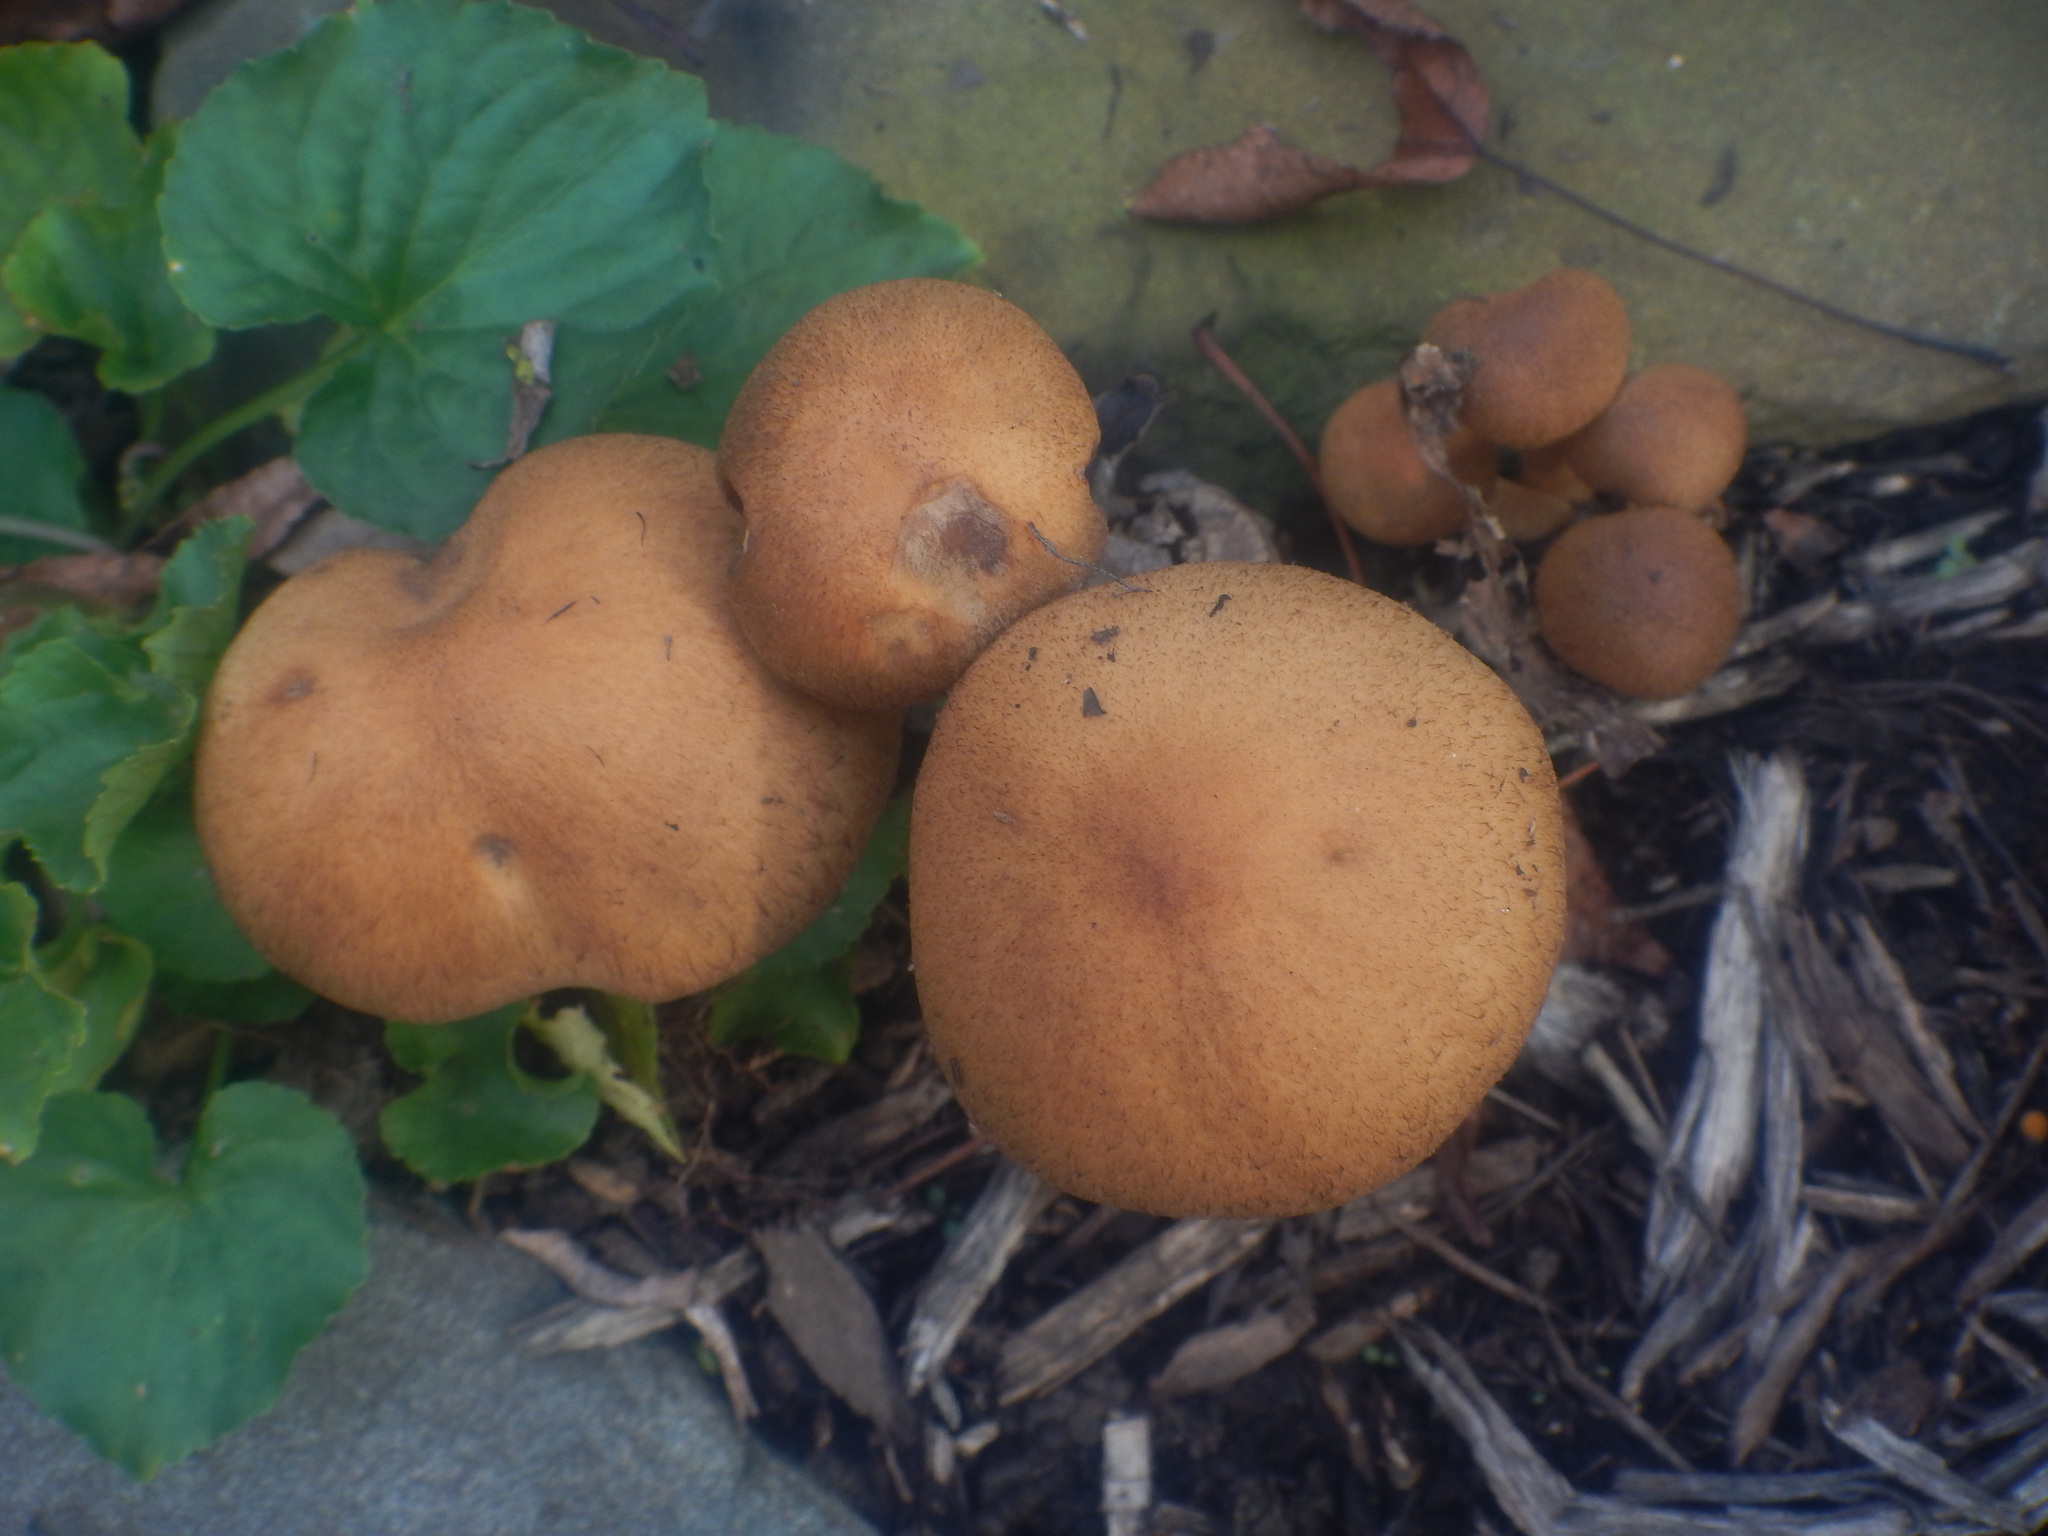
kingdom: Fungi
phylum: Basidiomycota
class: Agaricomycetes
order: Agaricales
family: Psathyrellaceae
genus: Lacrymaria
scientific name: Lacrymaria lacrymabunda
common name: Weeping widow
